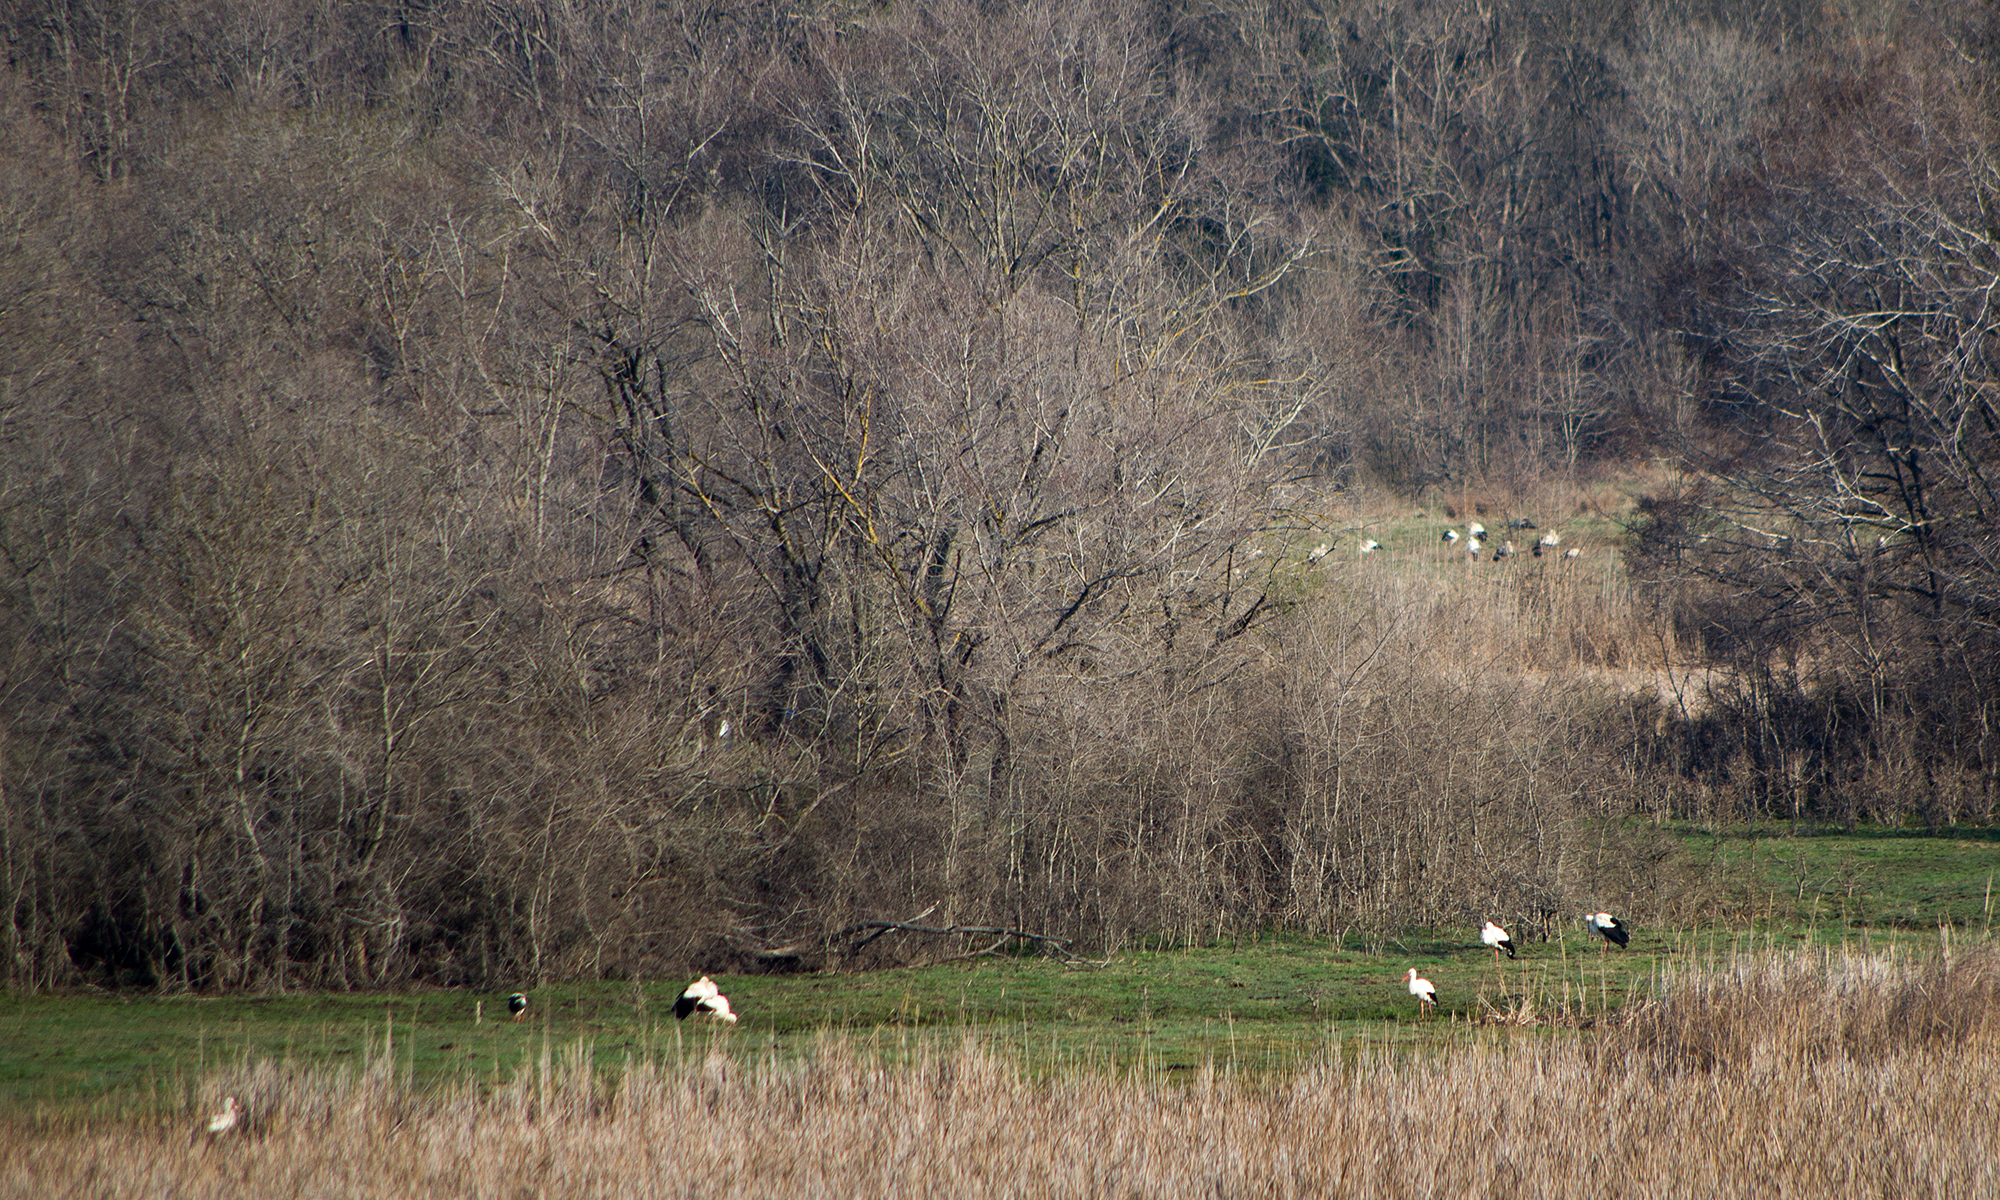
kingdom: Animalia
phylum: Chordata
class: Aves
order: Ciconiiformes
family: Ciconiidae
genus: Ciconia
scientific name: Ciconia ciconia
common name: White stork
